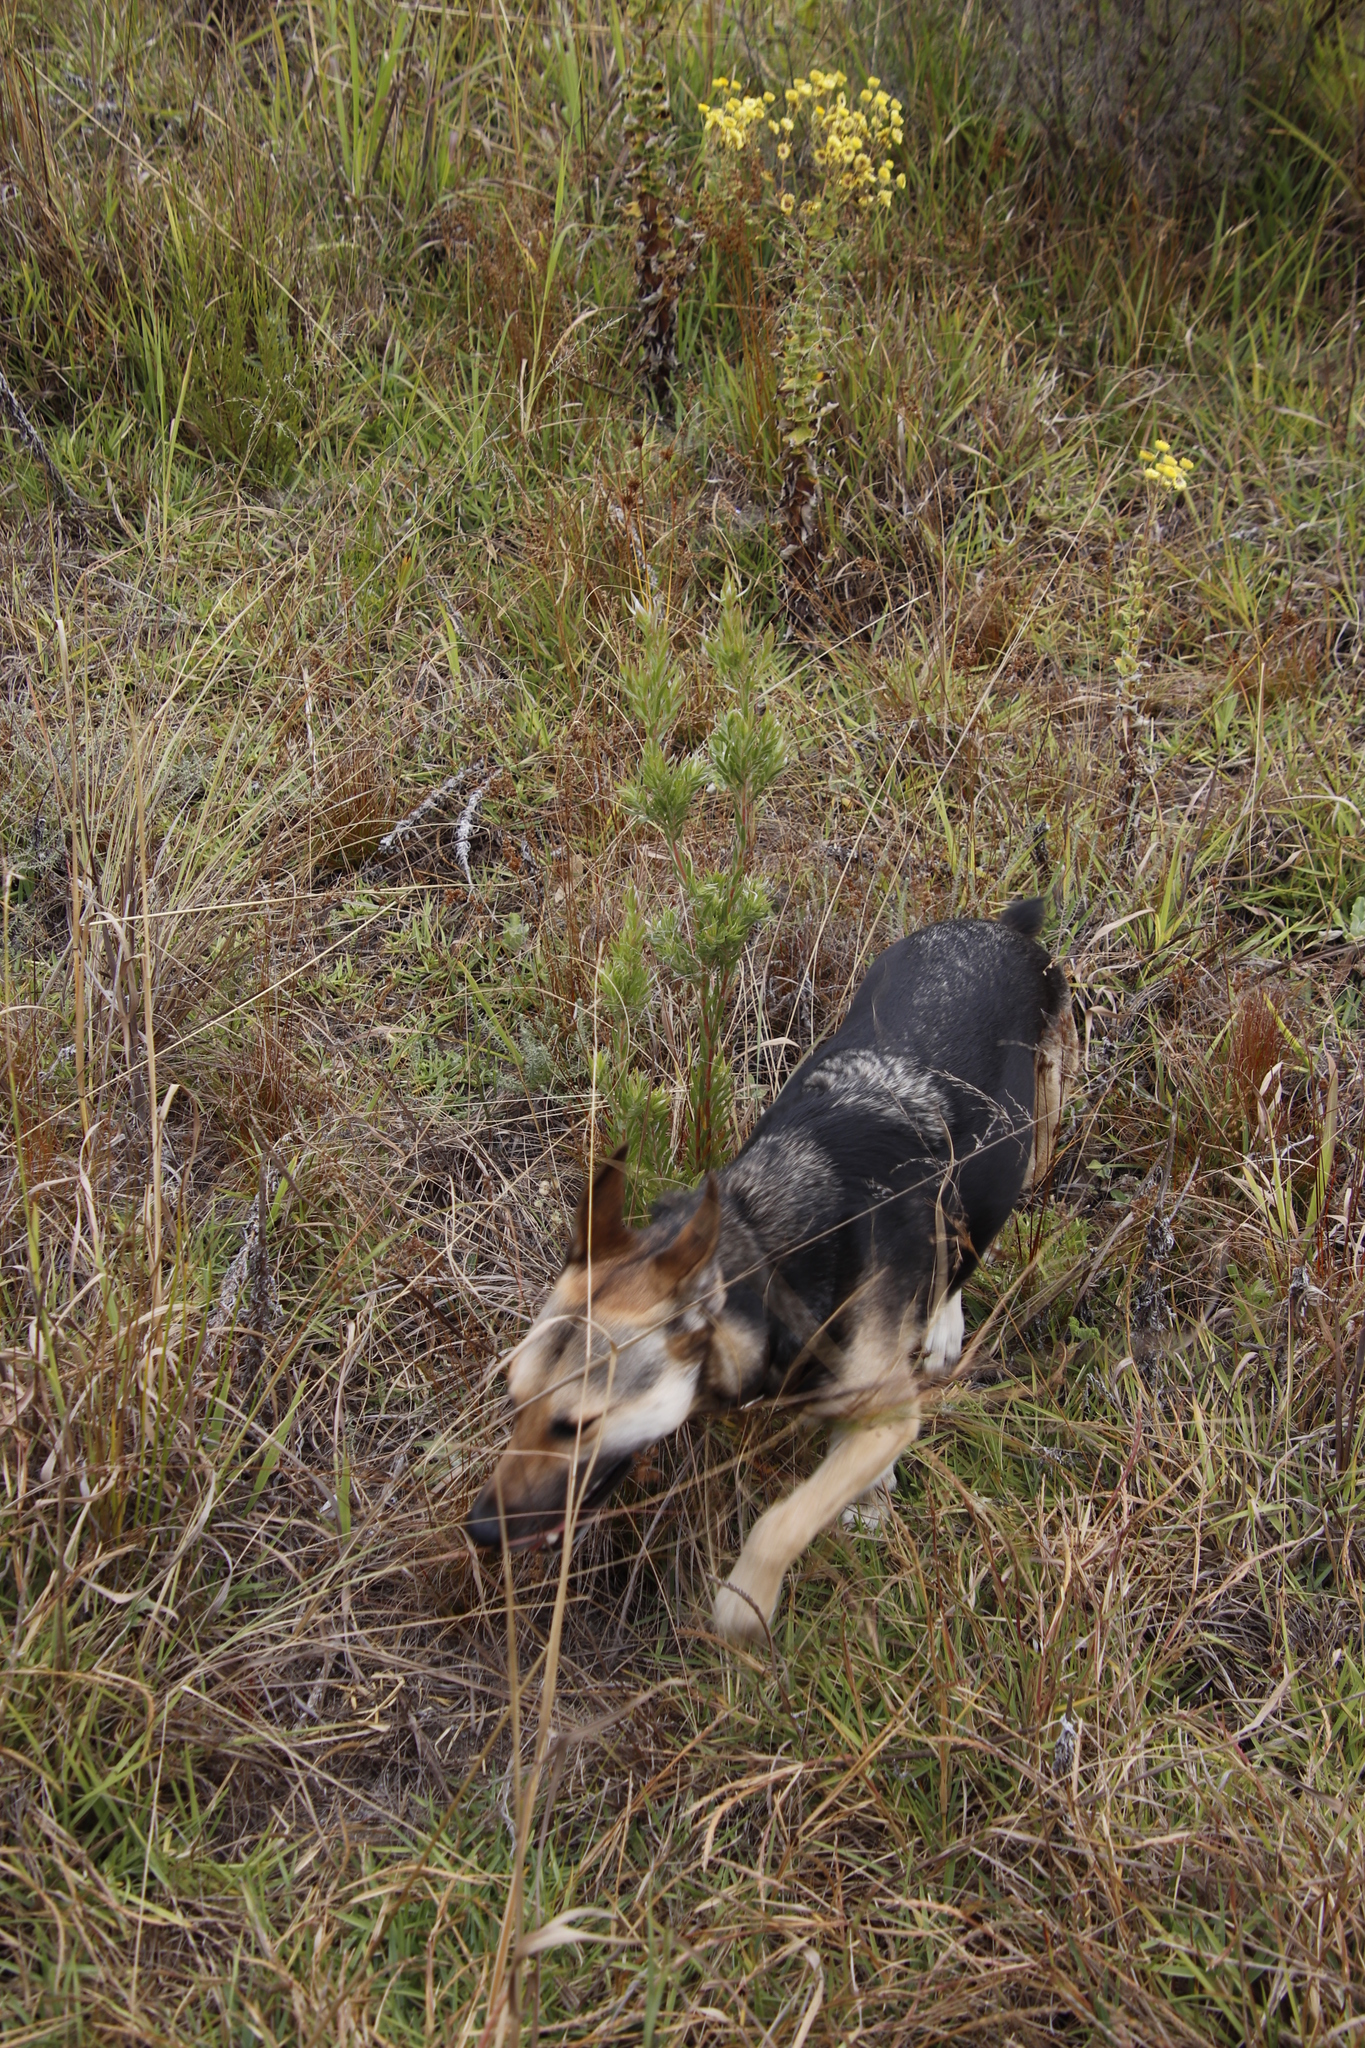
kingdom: Plantae
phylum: Tracheophyta
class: Magnoliopsida
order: Proteales
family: Proteaceae
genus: Leucadendron
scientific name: Leucadendron floridum
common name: Flats conebush
